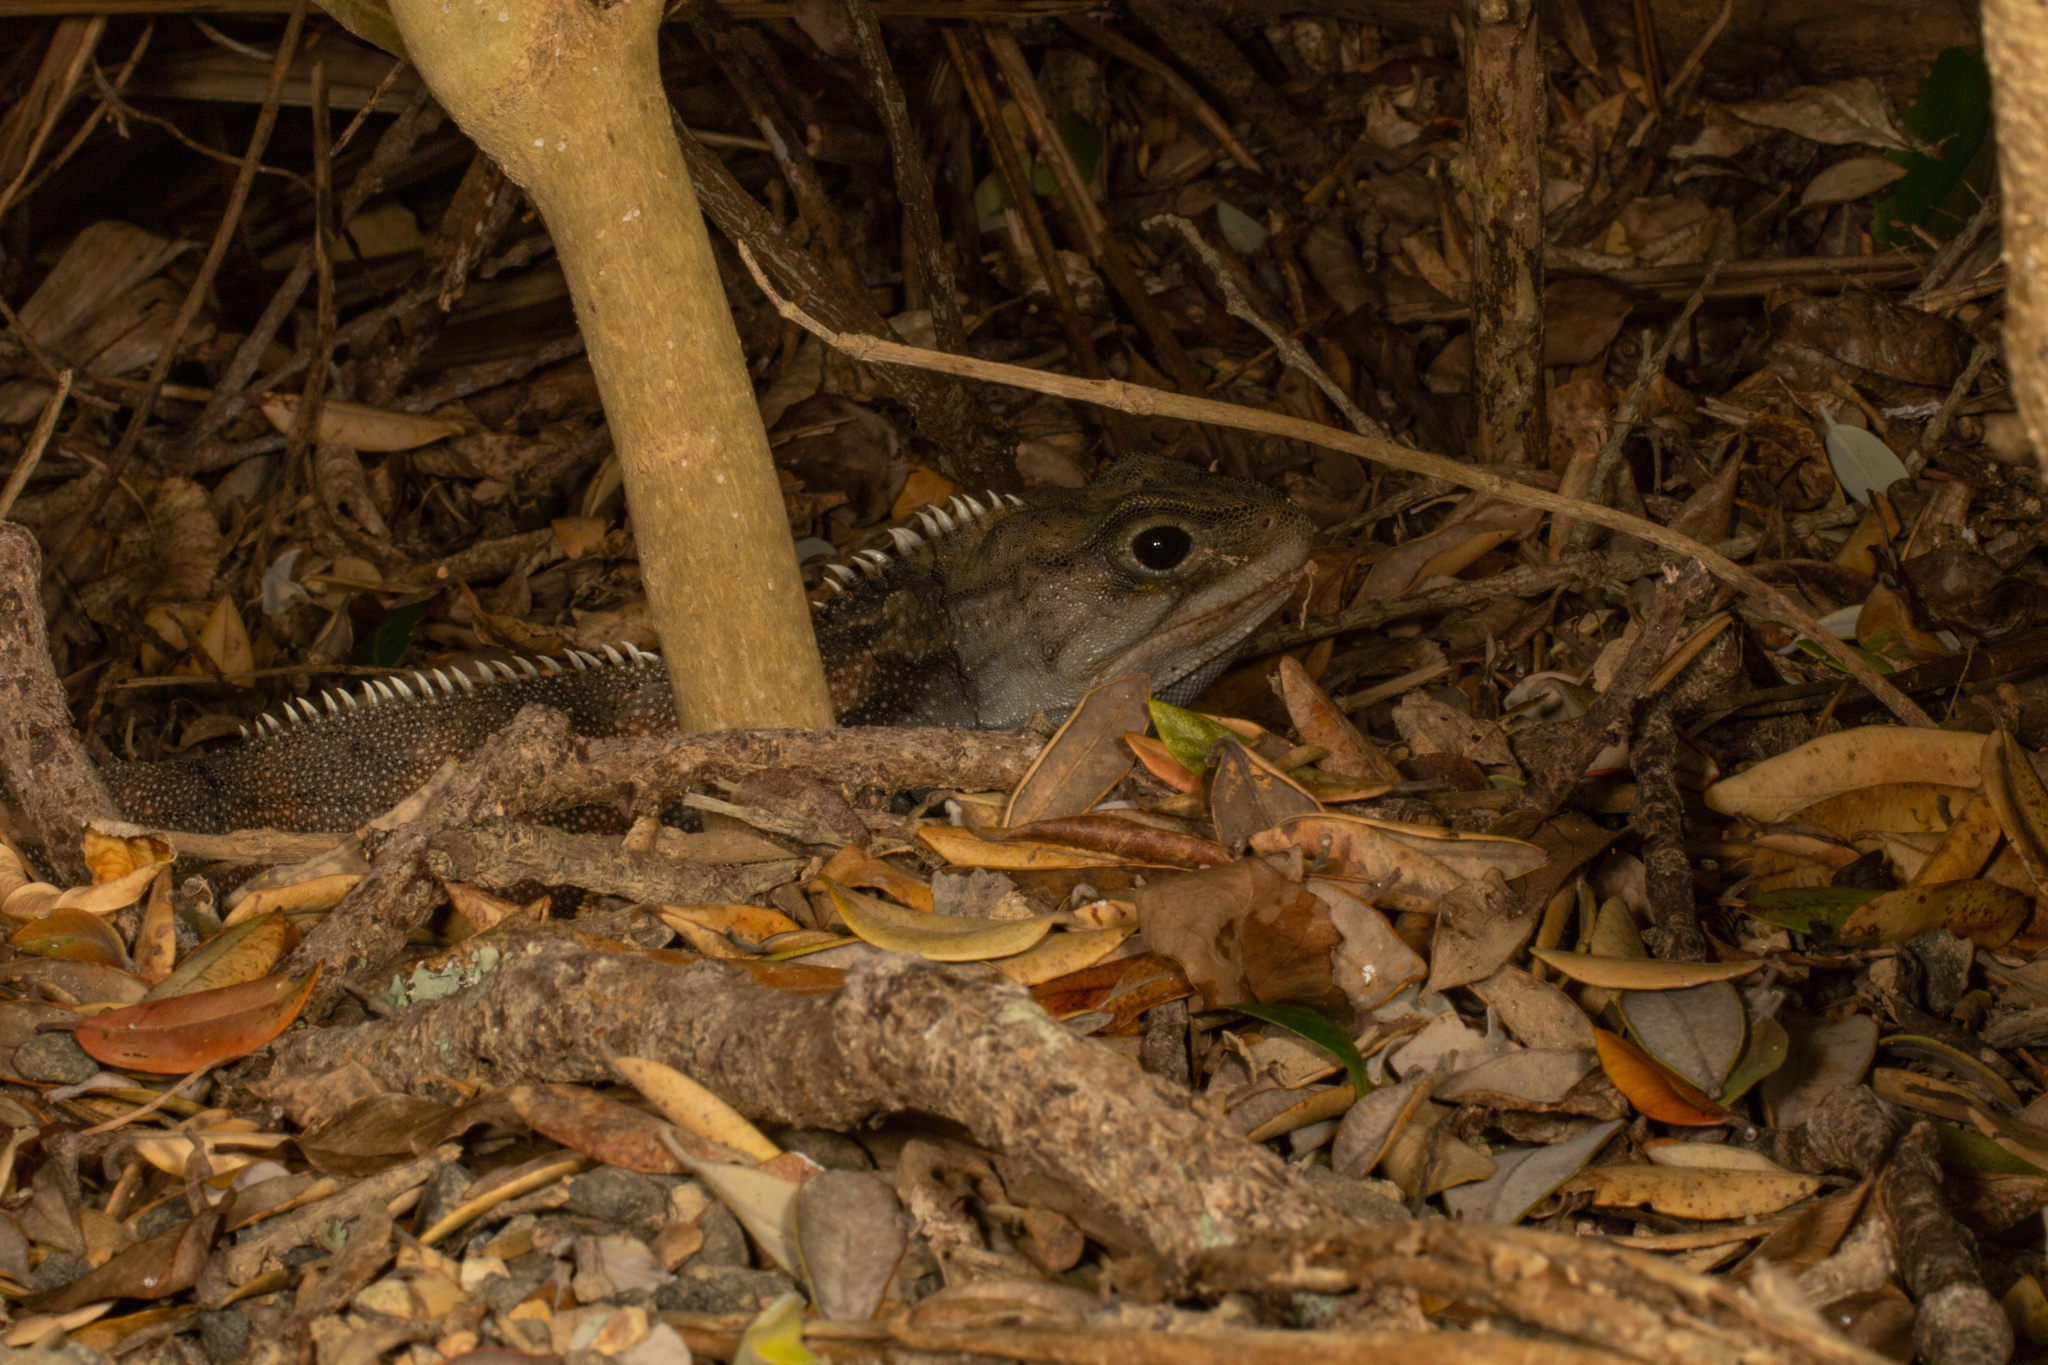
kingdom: Animalia
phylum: Chordata
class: Sphenodontia
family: Sphenodontidae
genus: Sphenodon
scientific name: Sphenodon punctatus
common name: Tuatara
